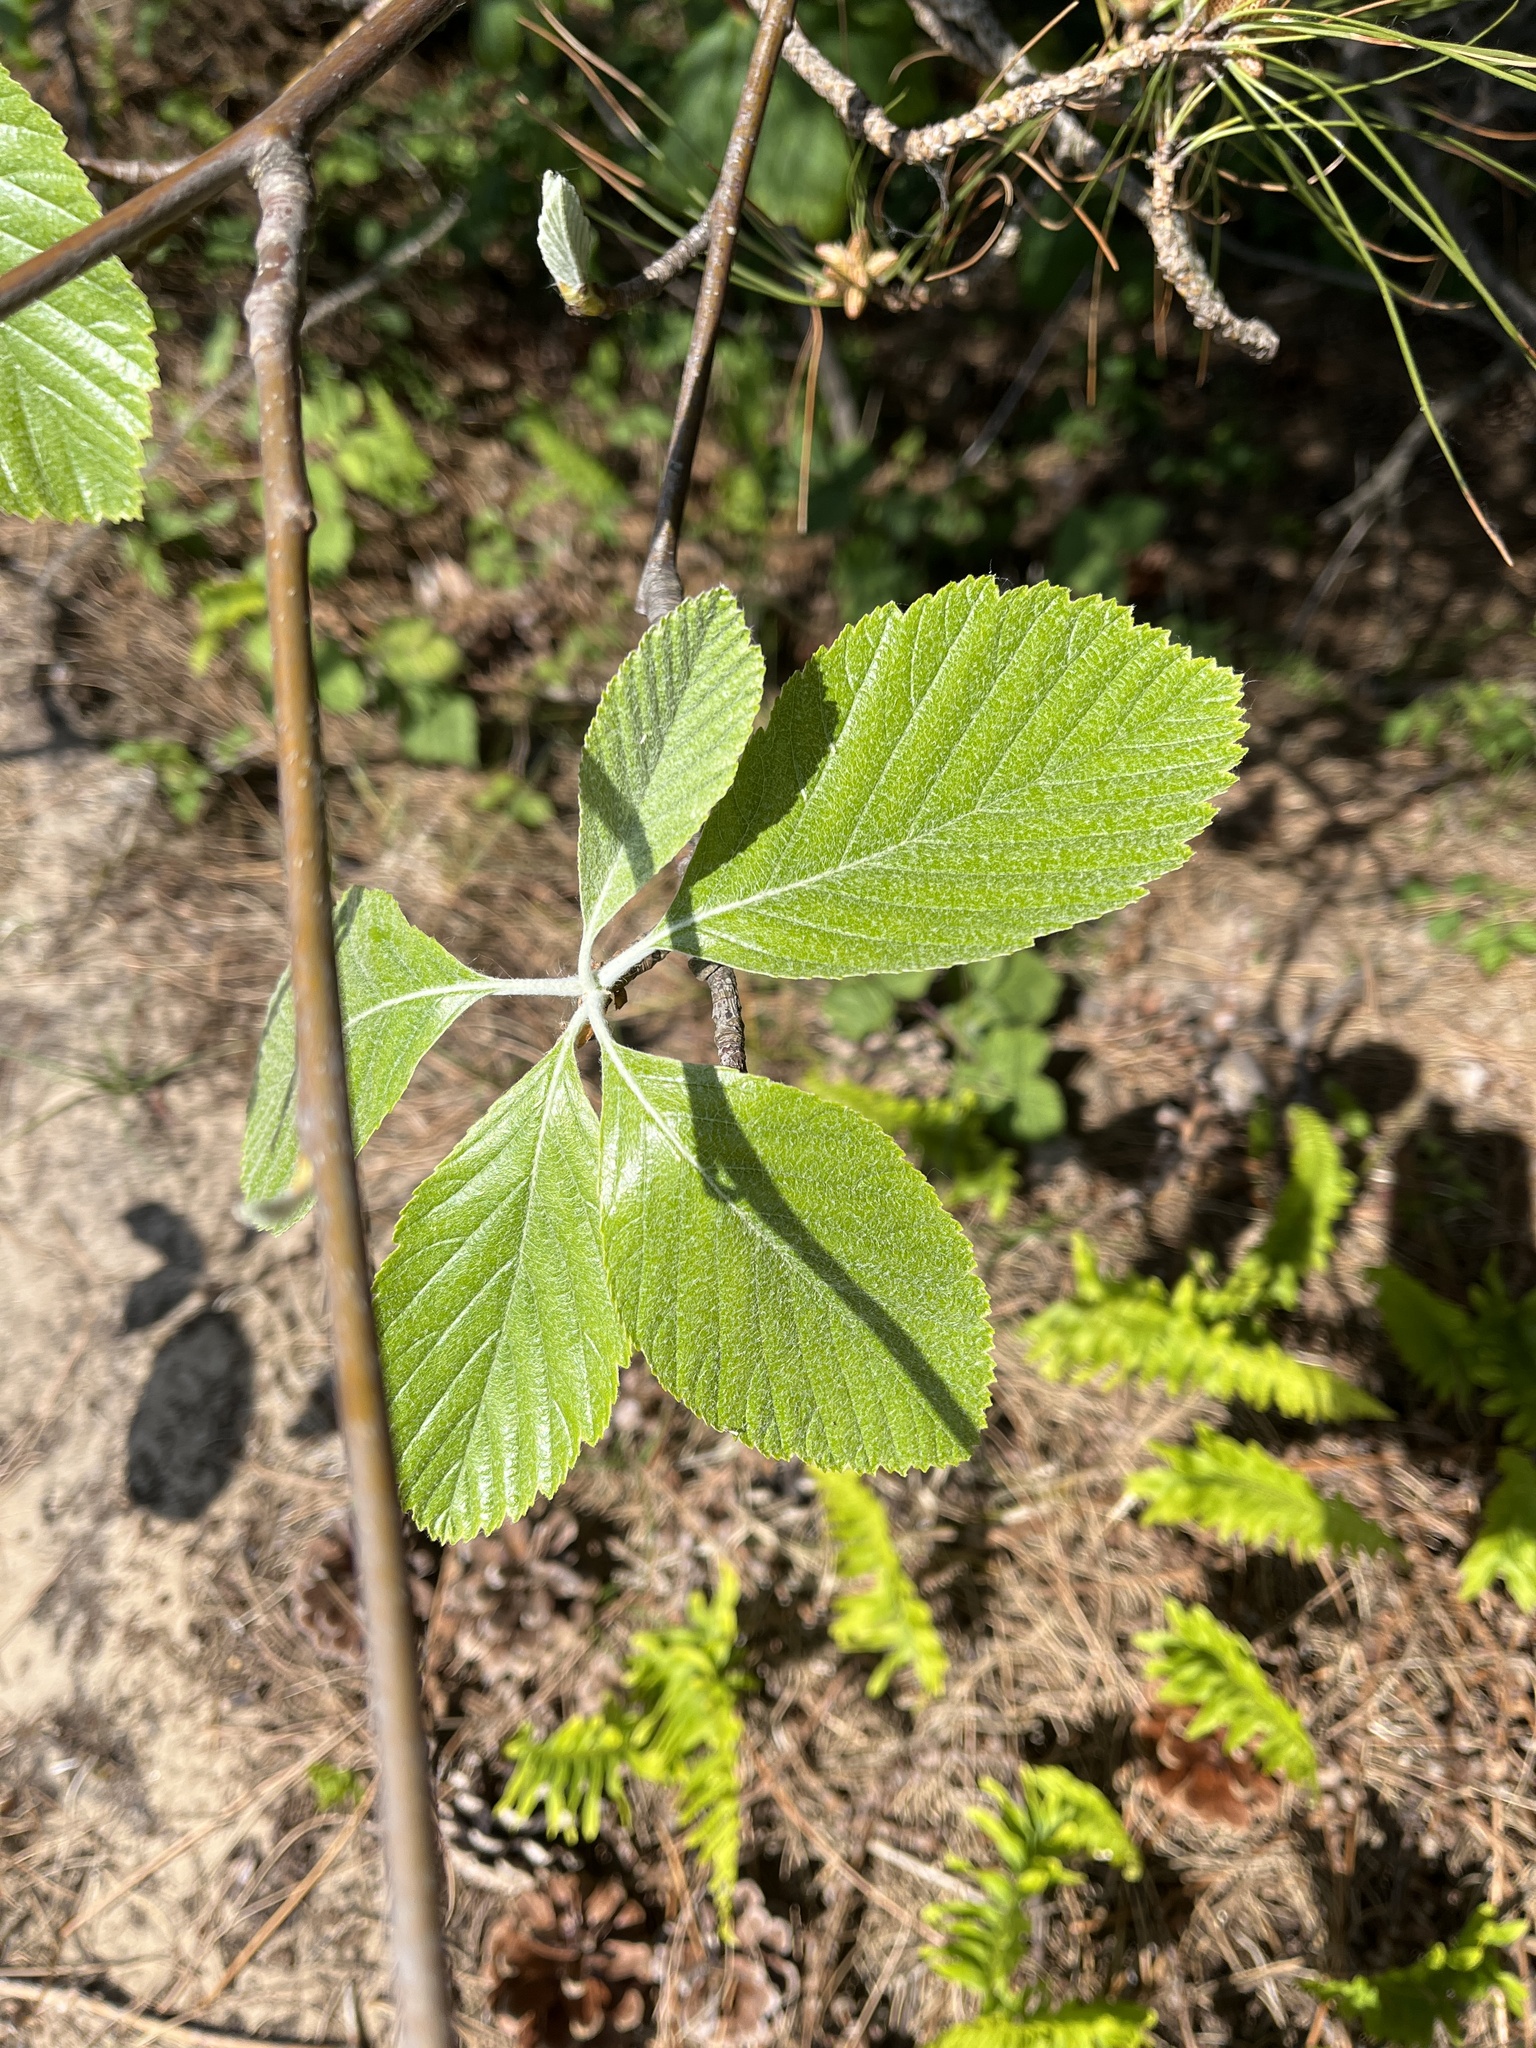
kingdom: Plantae
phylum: Tracheophyta
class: Magnoliopsida
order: Rosales
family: Rosaceae
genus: Aria
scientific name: Aria edulis
